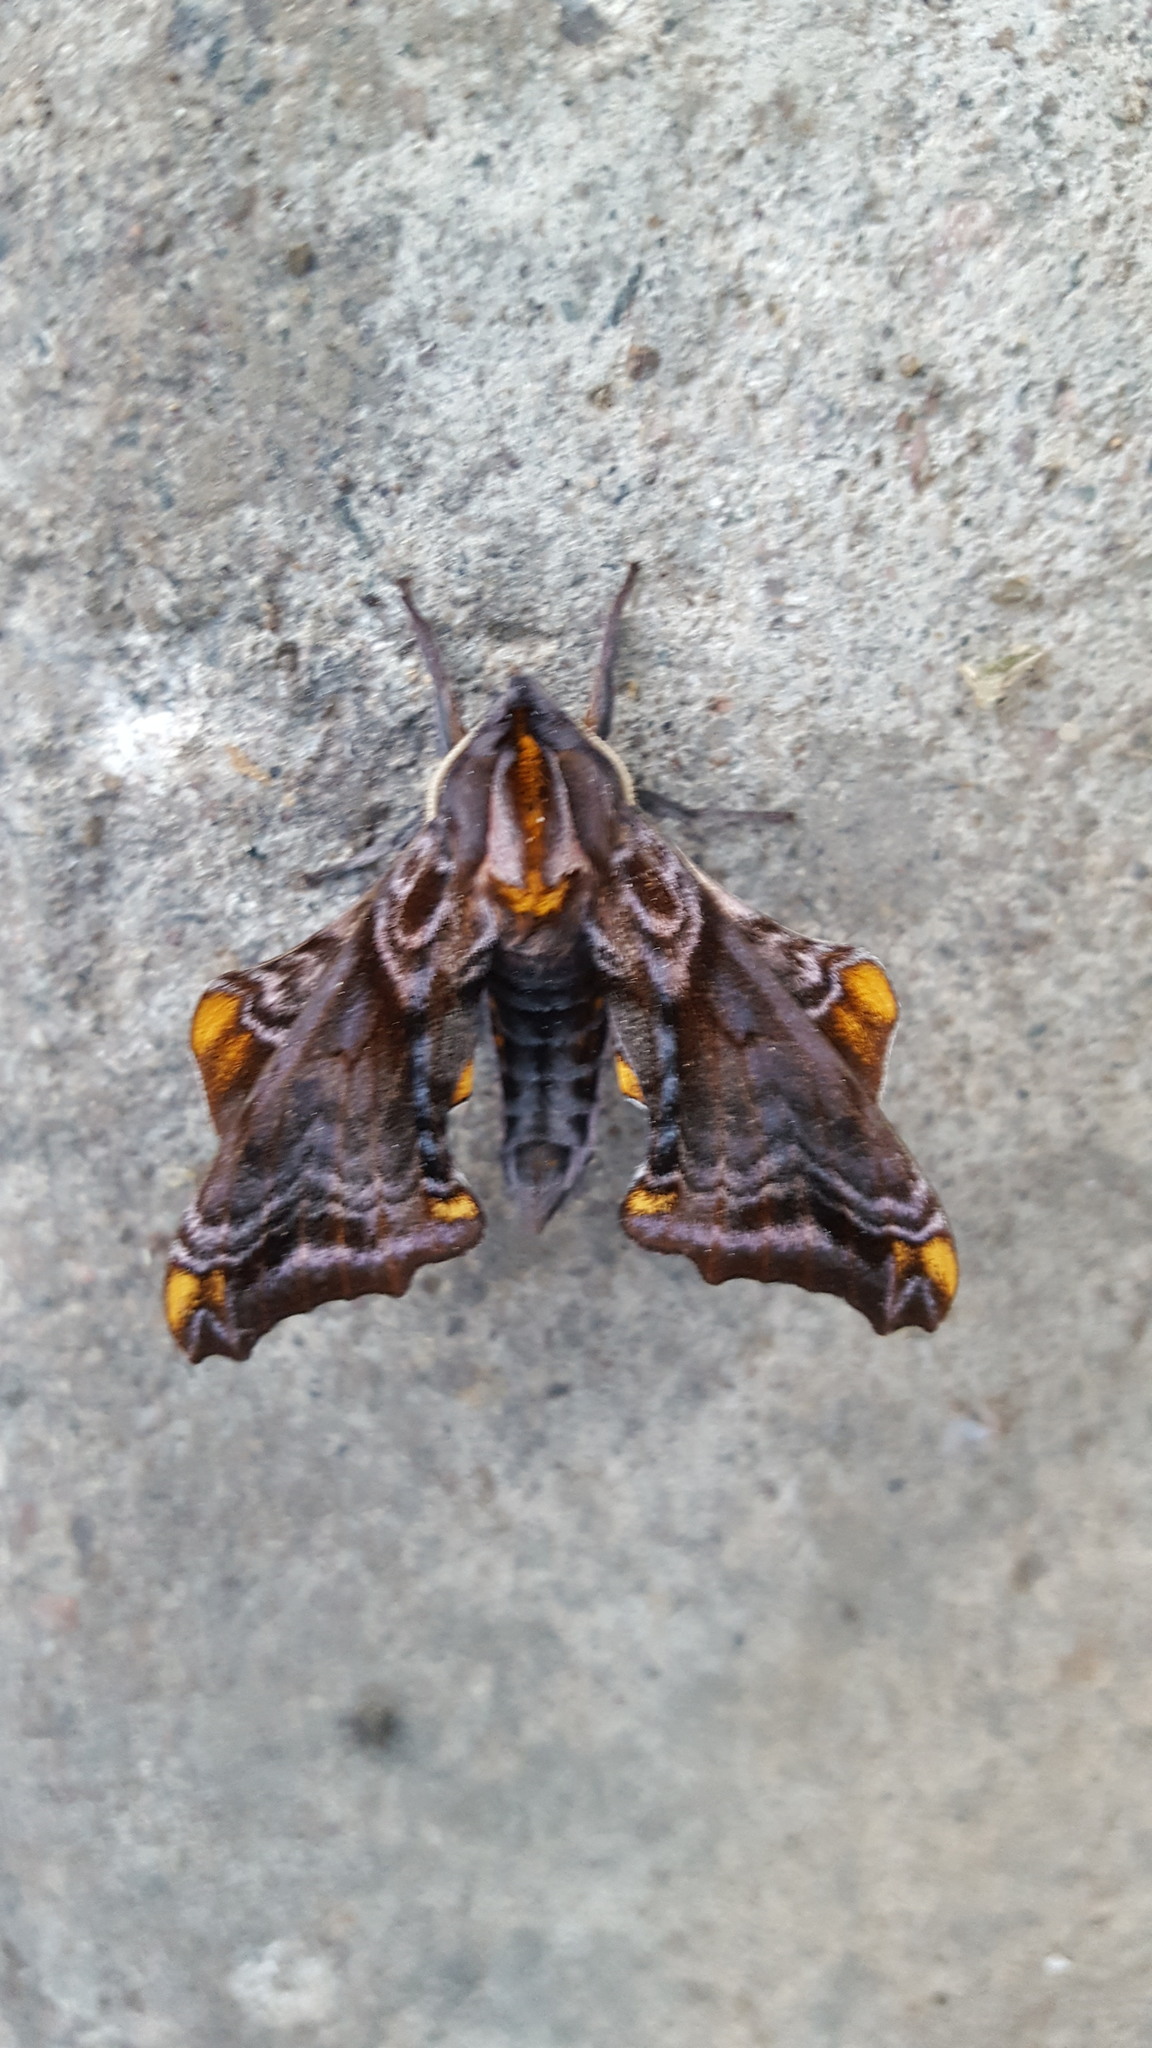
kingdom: Animalia
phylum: Arthropoda
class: Insecta
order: Lepidoptera
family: Sphingidae
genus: Paonias
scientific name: Paonias myops
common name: Small-eyed sphinx
